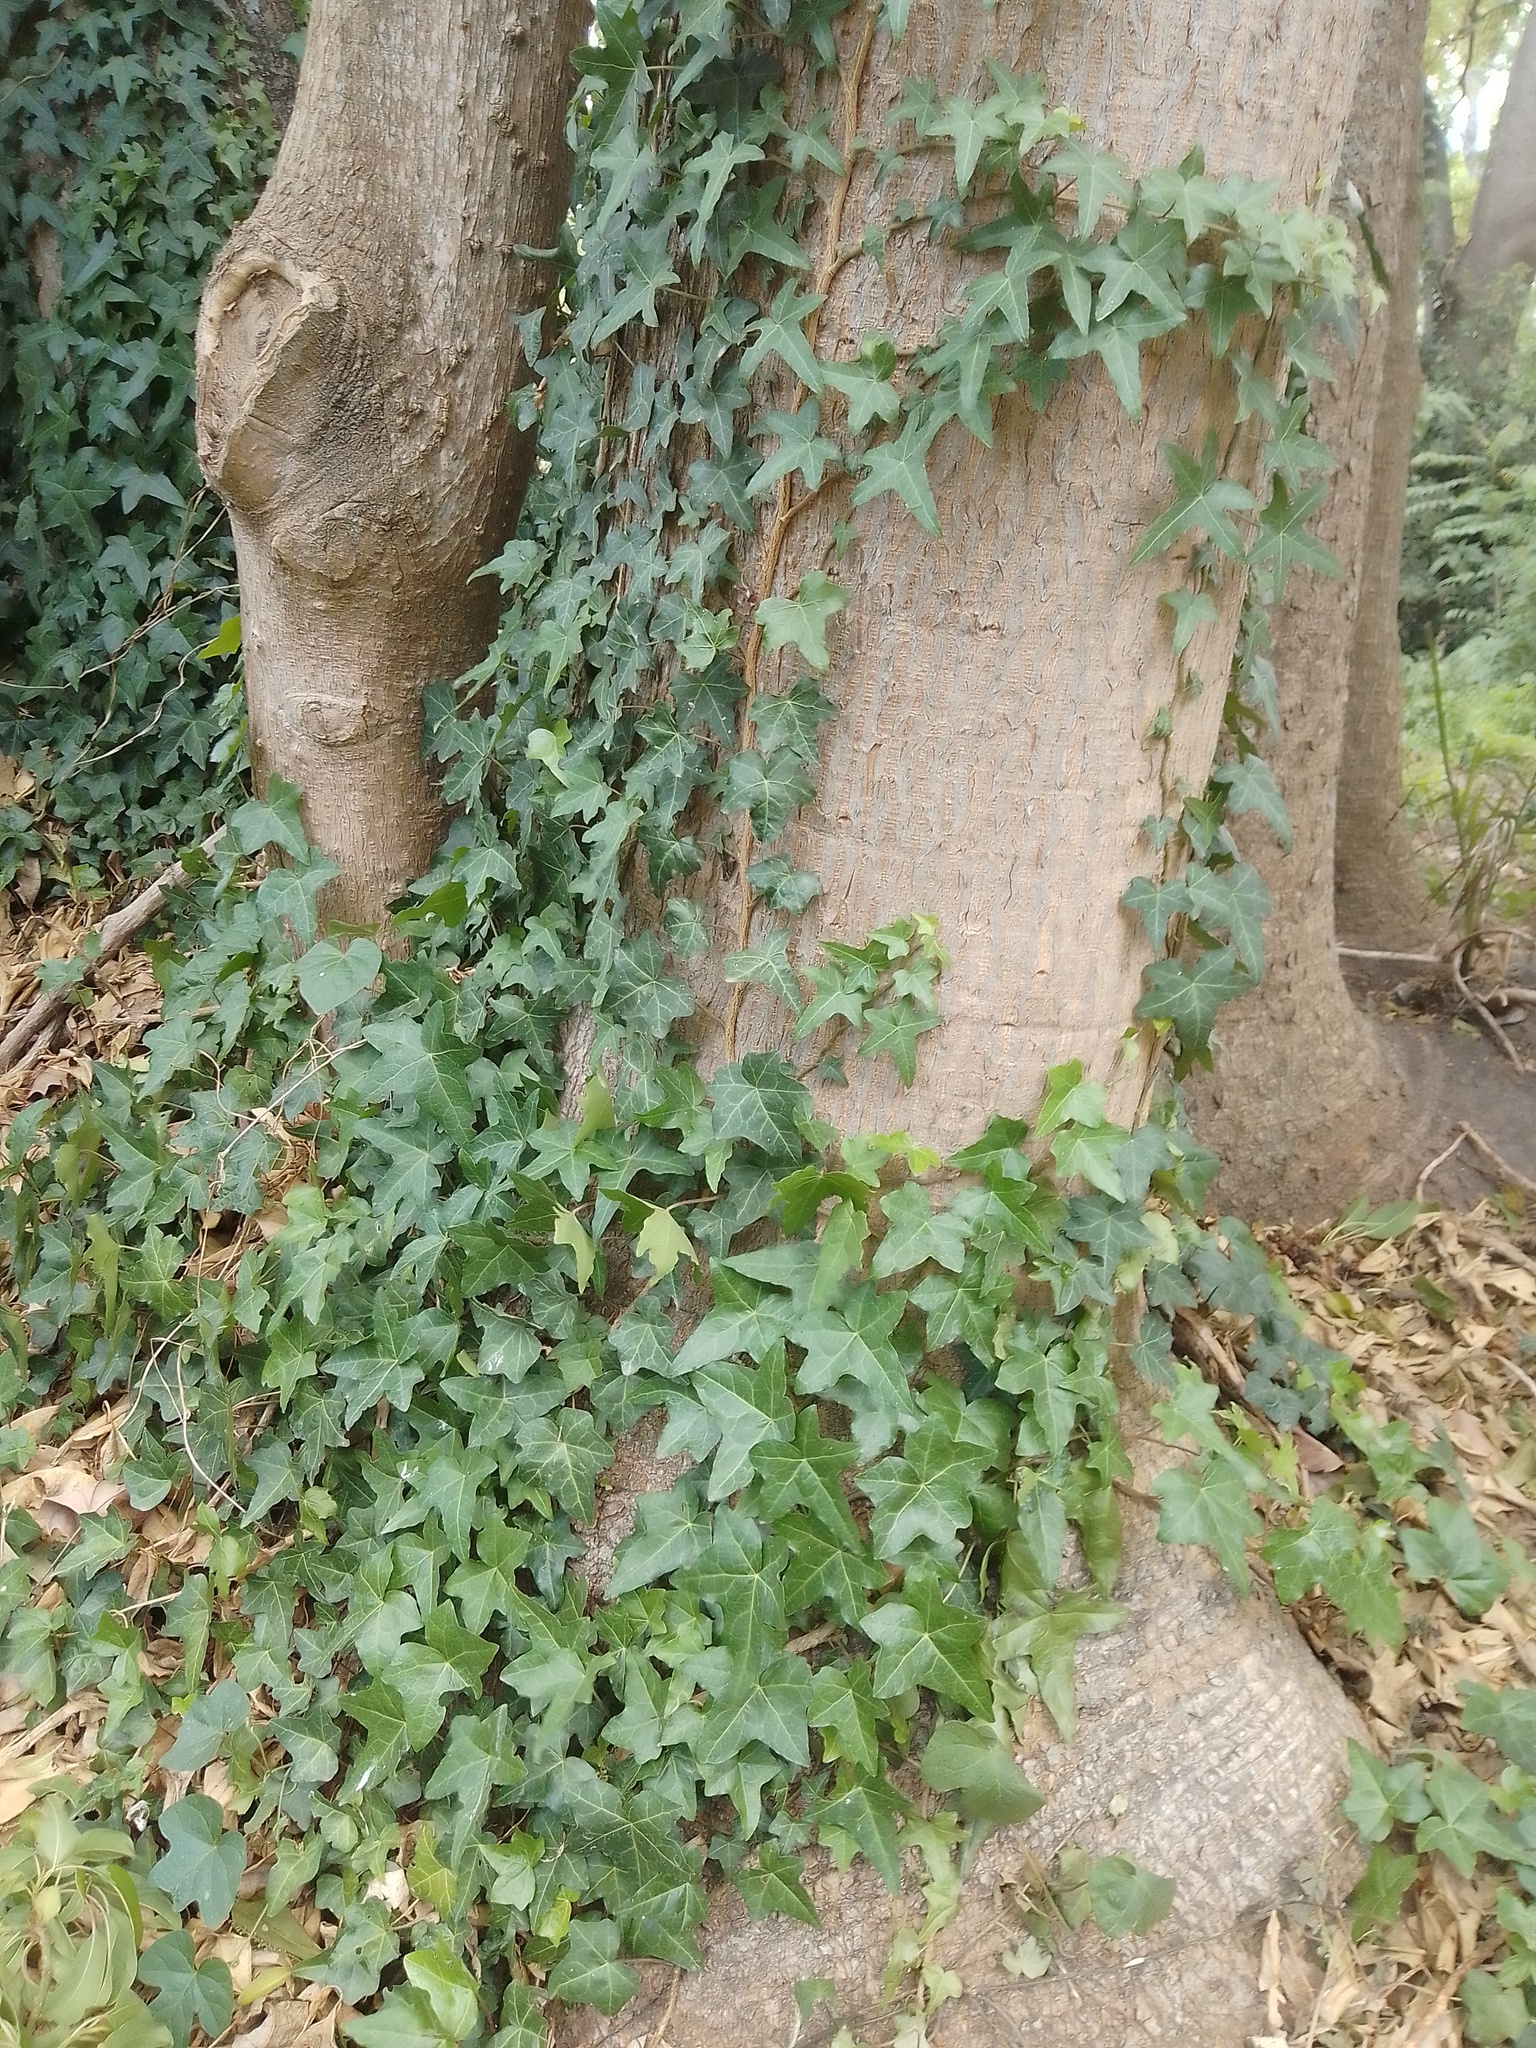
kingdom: Plantae
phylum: Tracheophyta
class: Magnoliopsida
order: Apiales
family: Araliaceae
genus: Hedera
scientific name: Hedera helix
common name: Ivy
